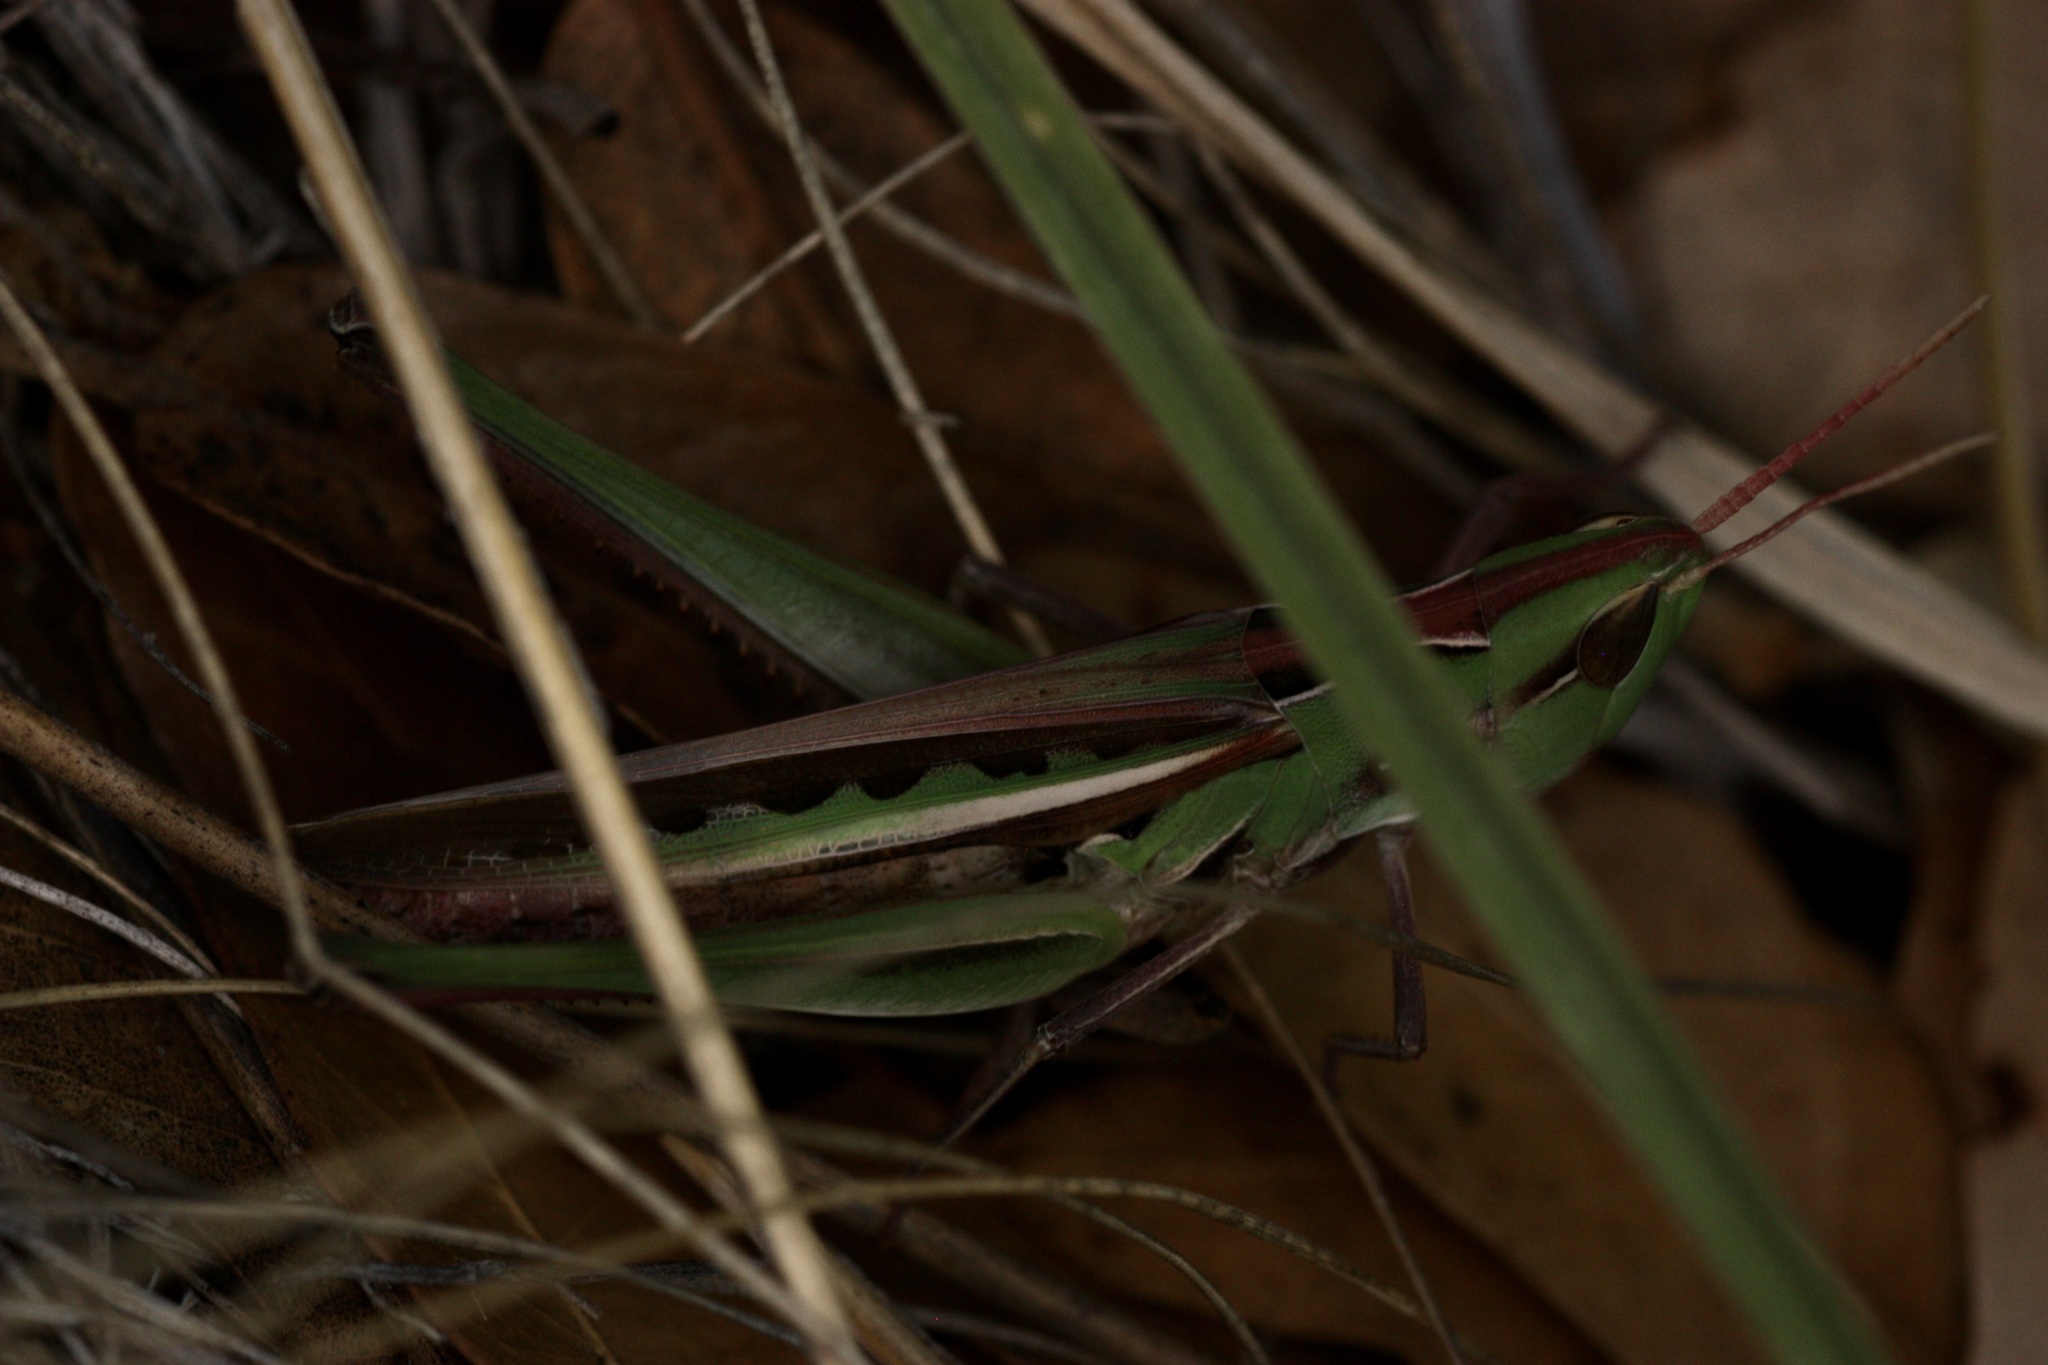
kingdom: Animalia
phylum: Arthropoda
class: Insecta
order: Orthoptera
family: Acrididae
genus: Syrbula
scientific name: Syrbula montezuma
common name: Montezuma's grasshopper
